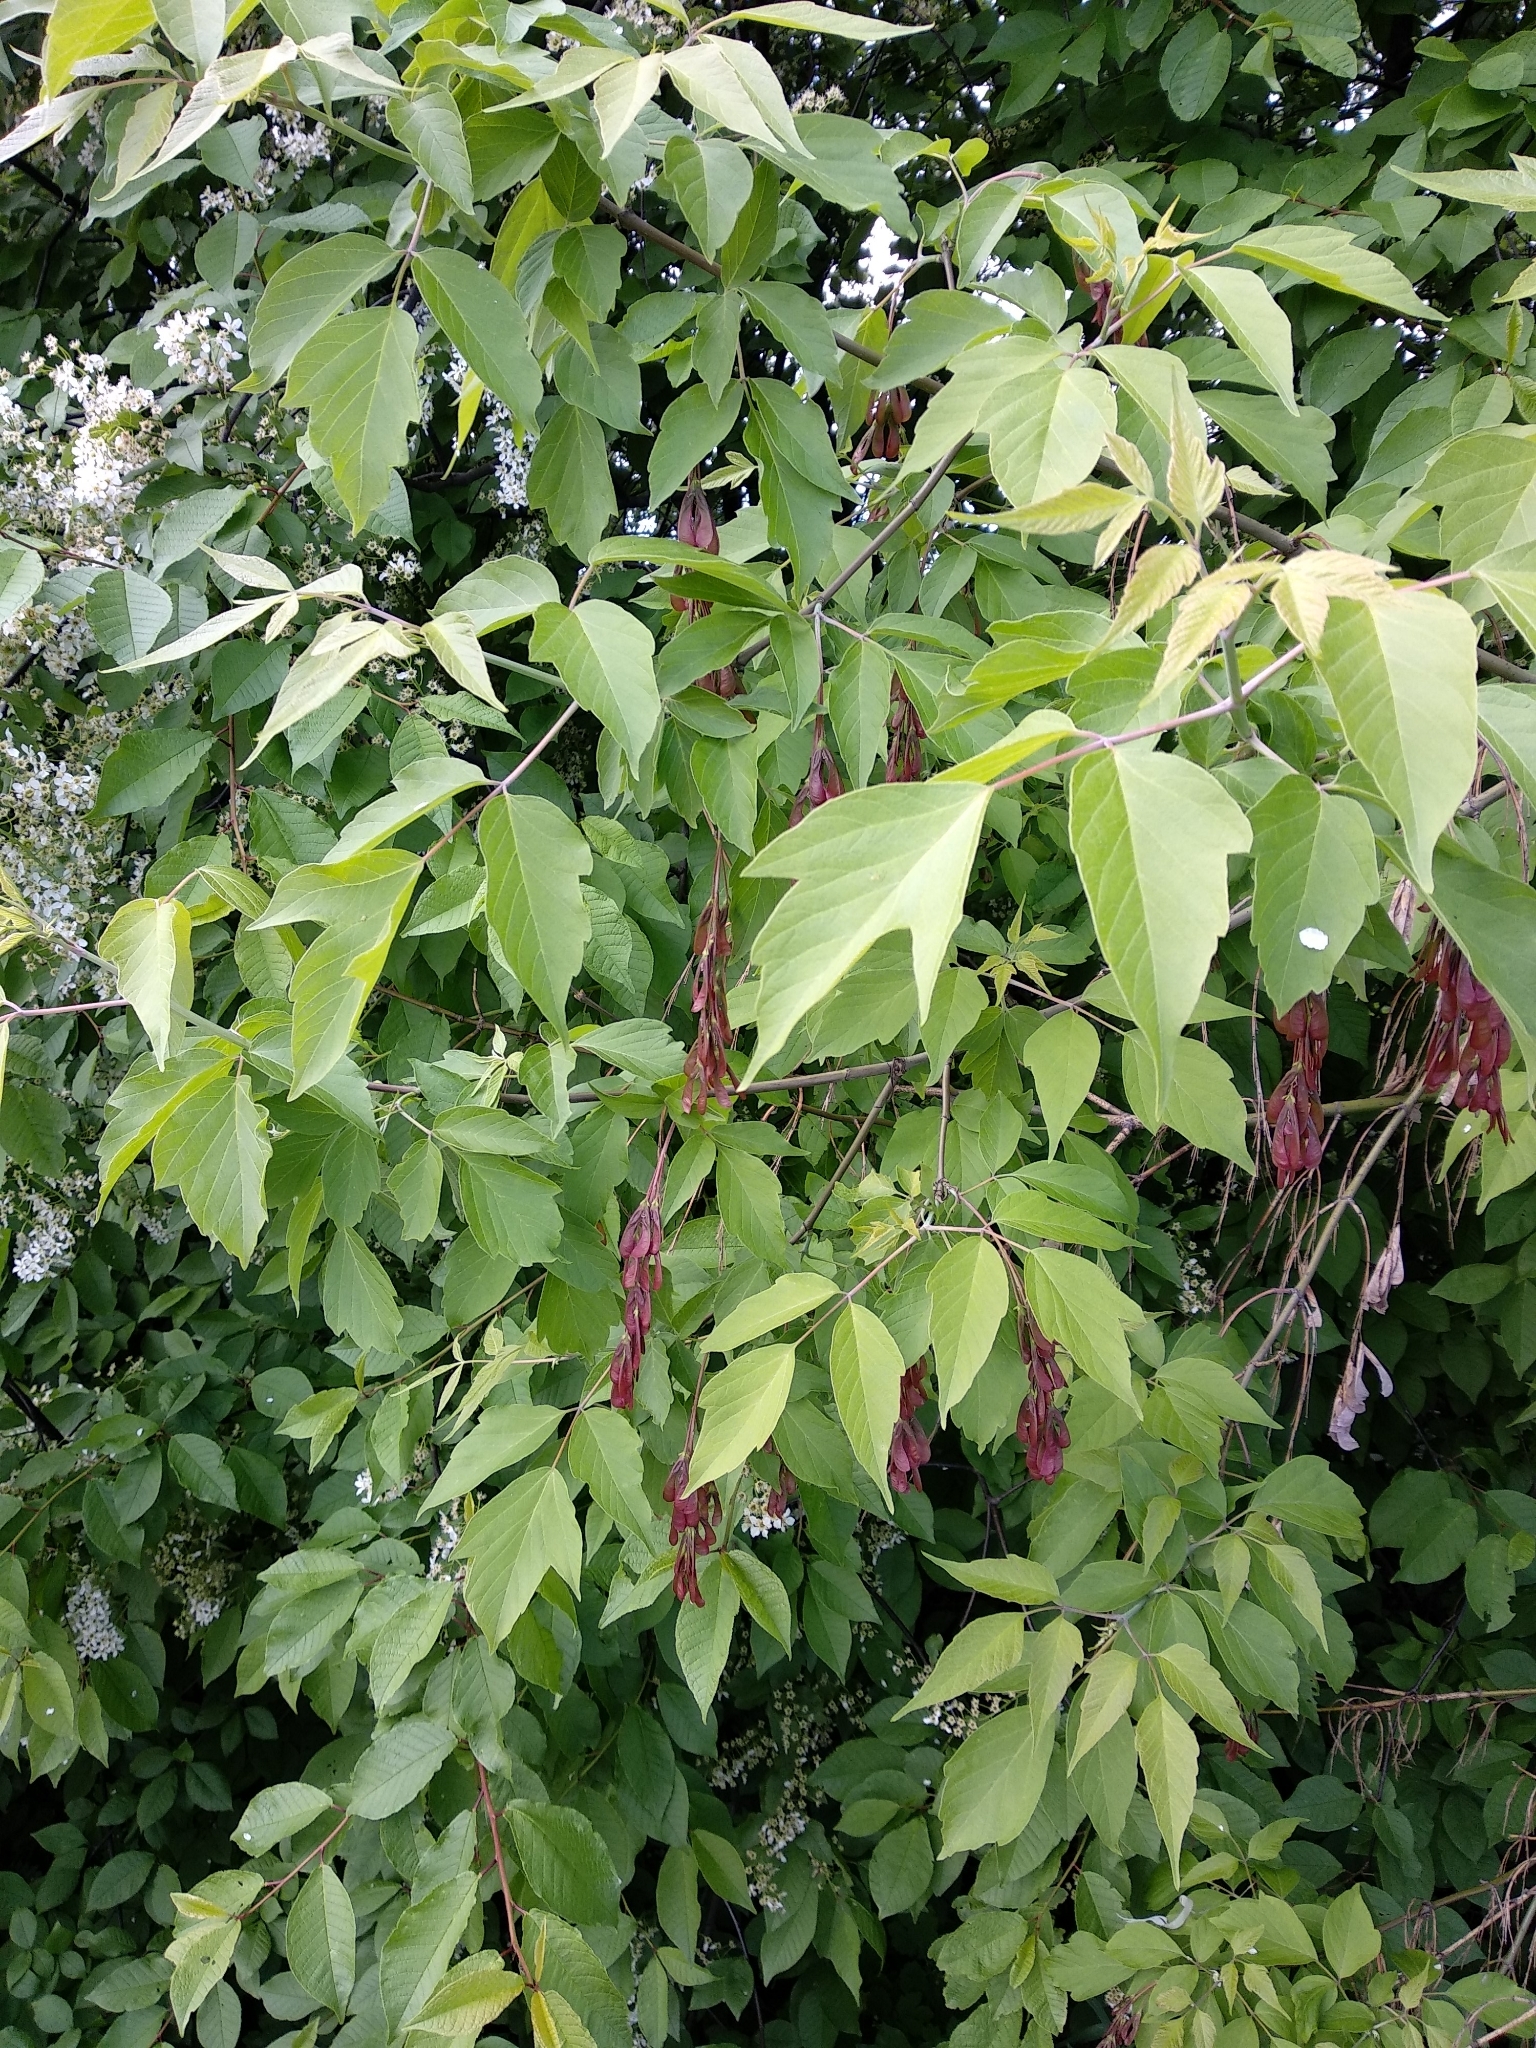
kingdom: Plantae
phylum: Tracheophyta
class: Magnoliopsida
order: Sapindales
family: Sapindaceae
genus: Acer
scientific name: Acer negundo
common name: Ashleaf maple
